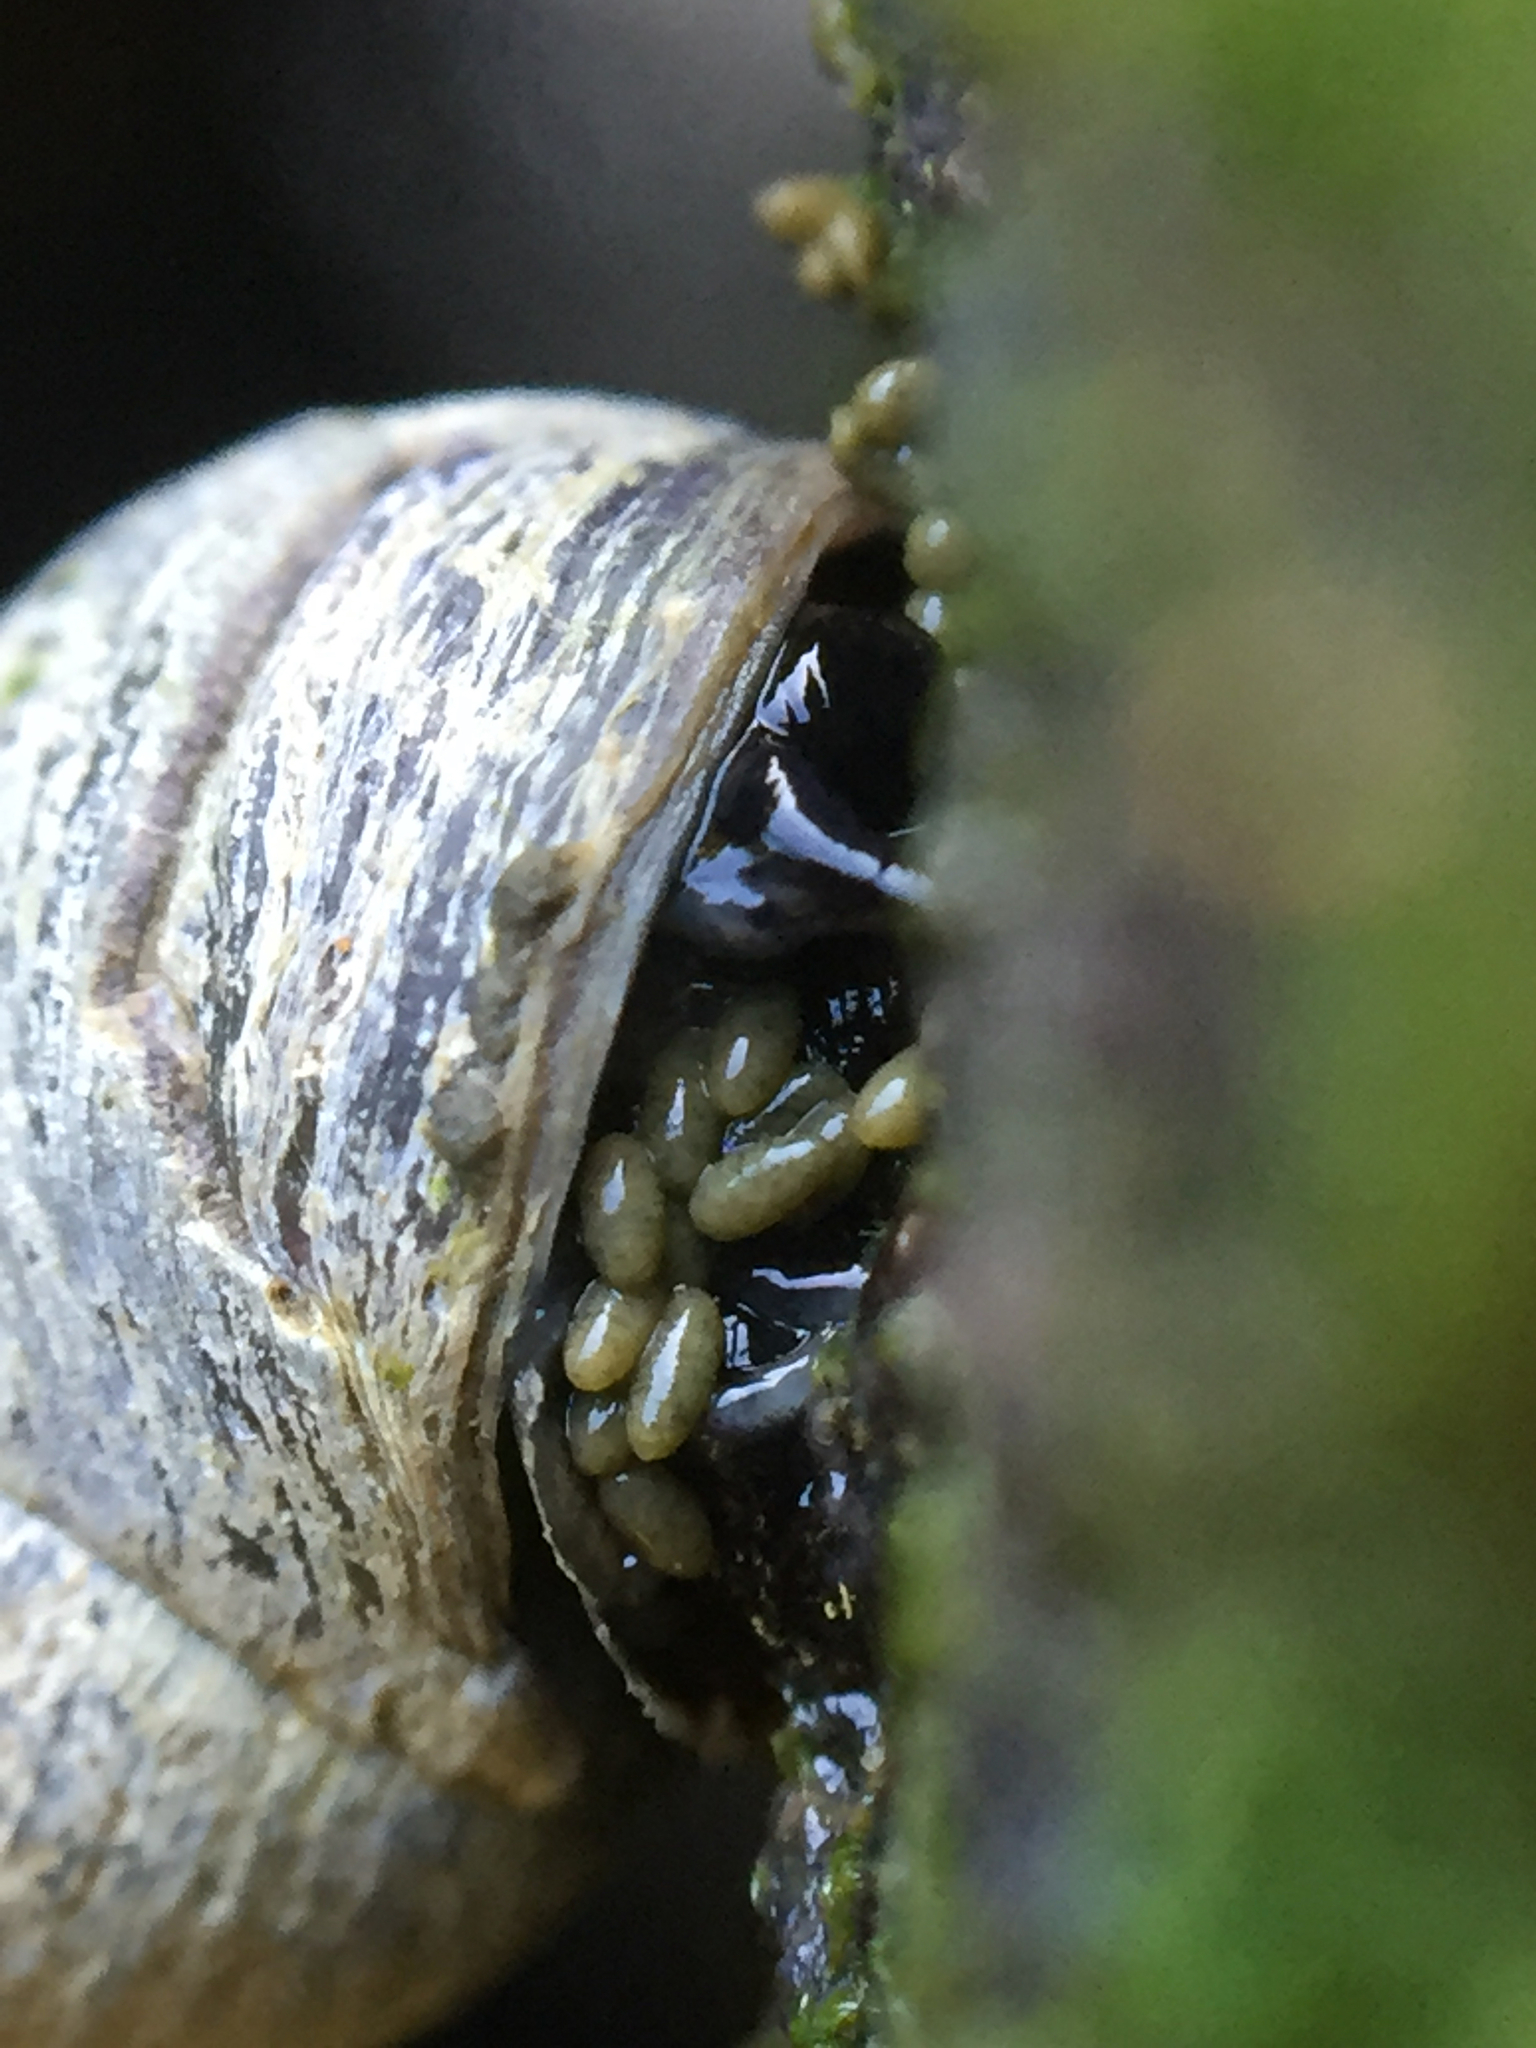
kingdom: Animalia
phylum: Mollusca
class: Gastropoda
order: Littorinimorpha
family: Littorinidae
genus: Littorina
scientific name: Littorina scutulata
